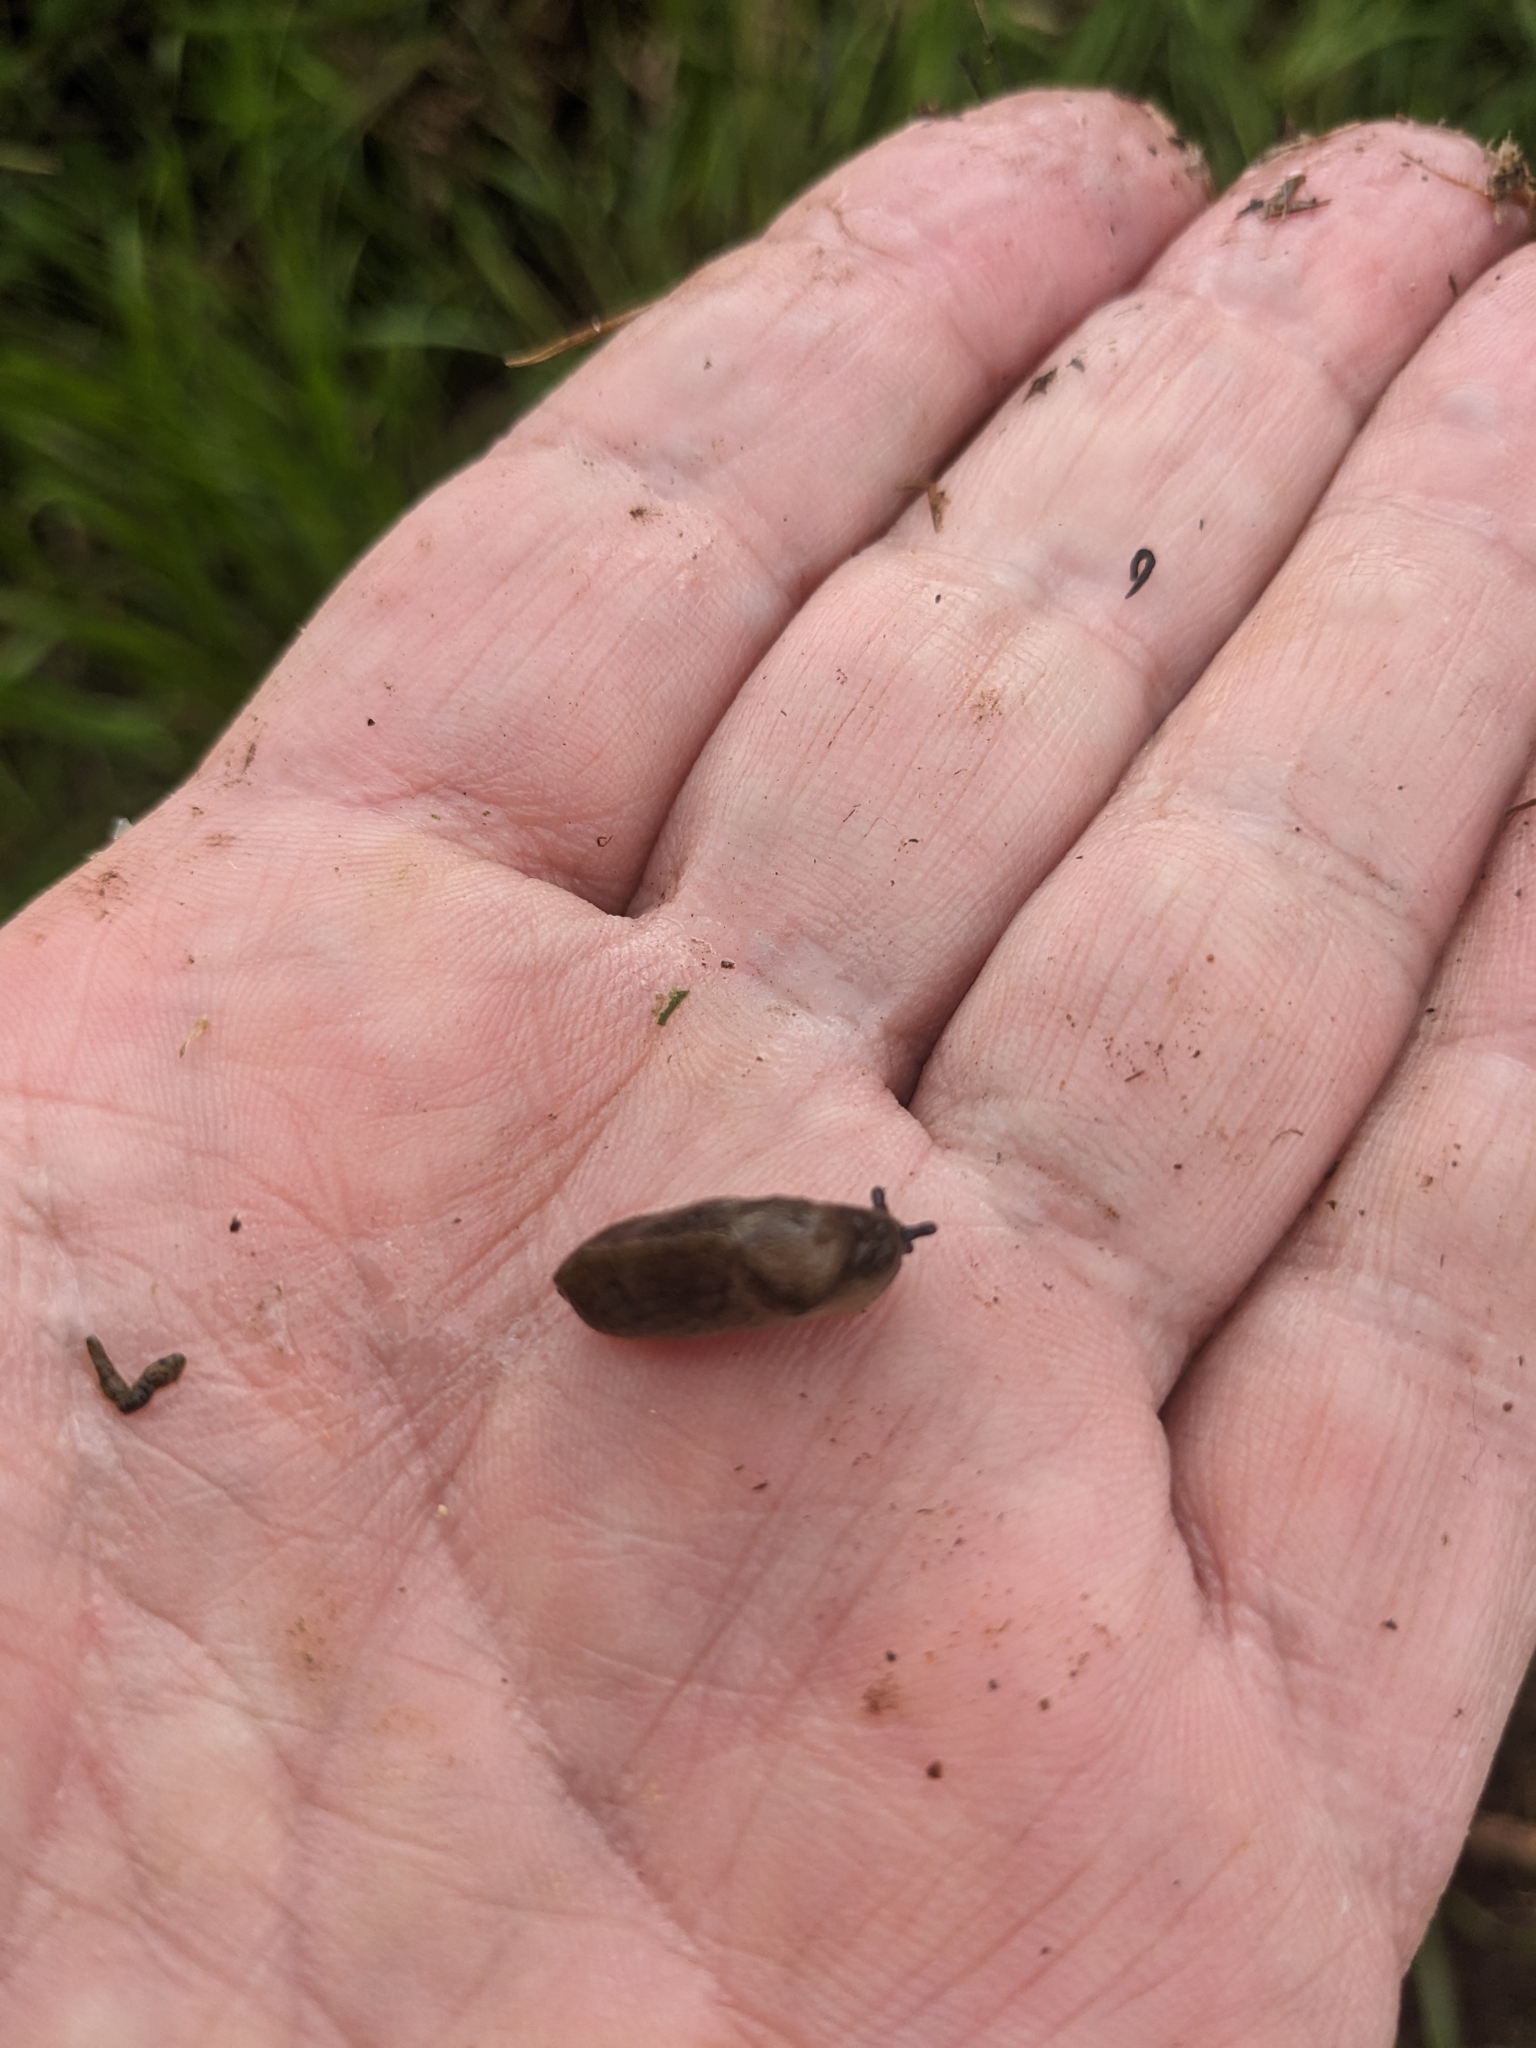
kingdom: Animalia
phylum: Mollusca
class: Gastropoda
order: Stylommatophora
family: Milacidae
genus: Milax
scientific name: Milax gagates
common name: Greenhouse slug
